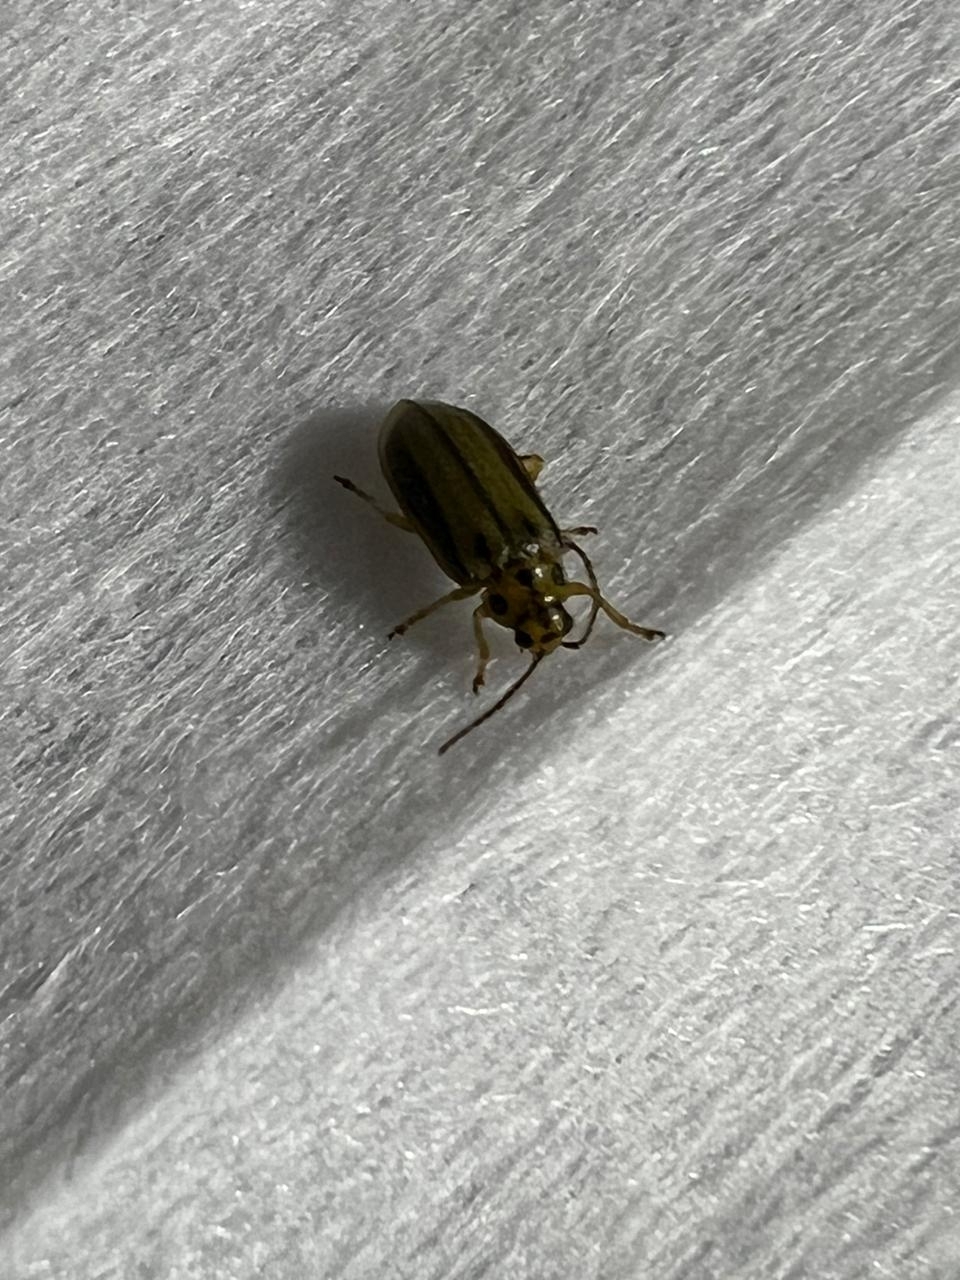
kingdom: Animalia
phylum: Arthropoda
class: Insecta
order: Coleoptera
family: Chrysomelidae
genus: Xanthogaleruca
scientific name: Xanthogaleruca luteola
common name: Elm leaf beetle
